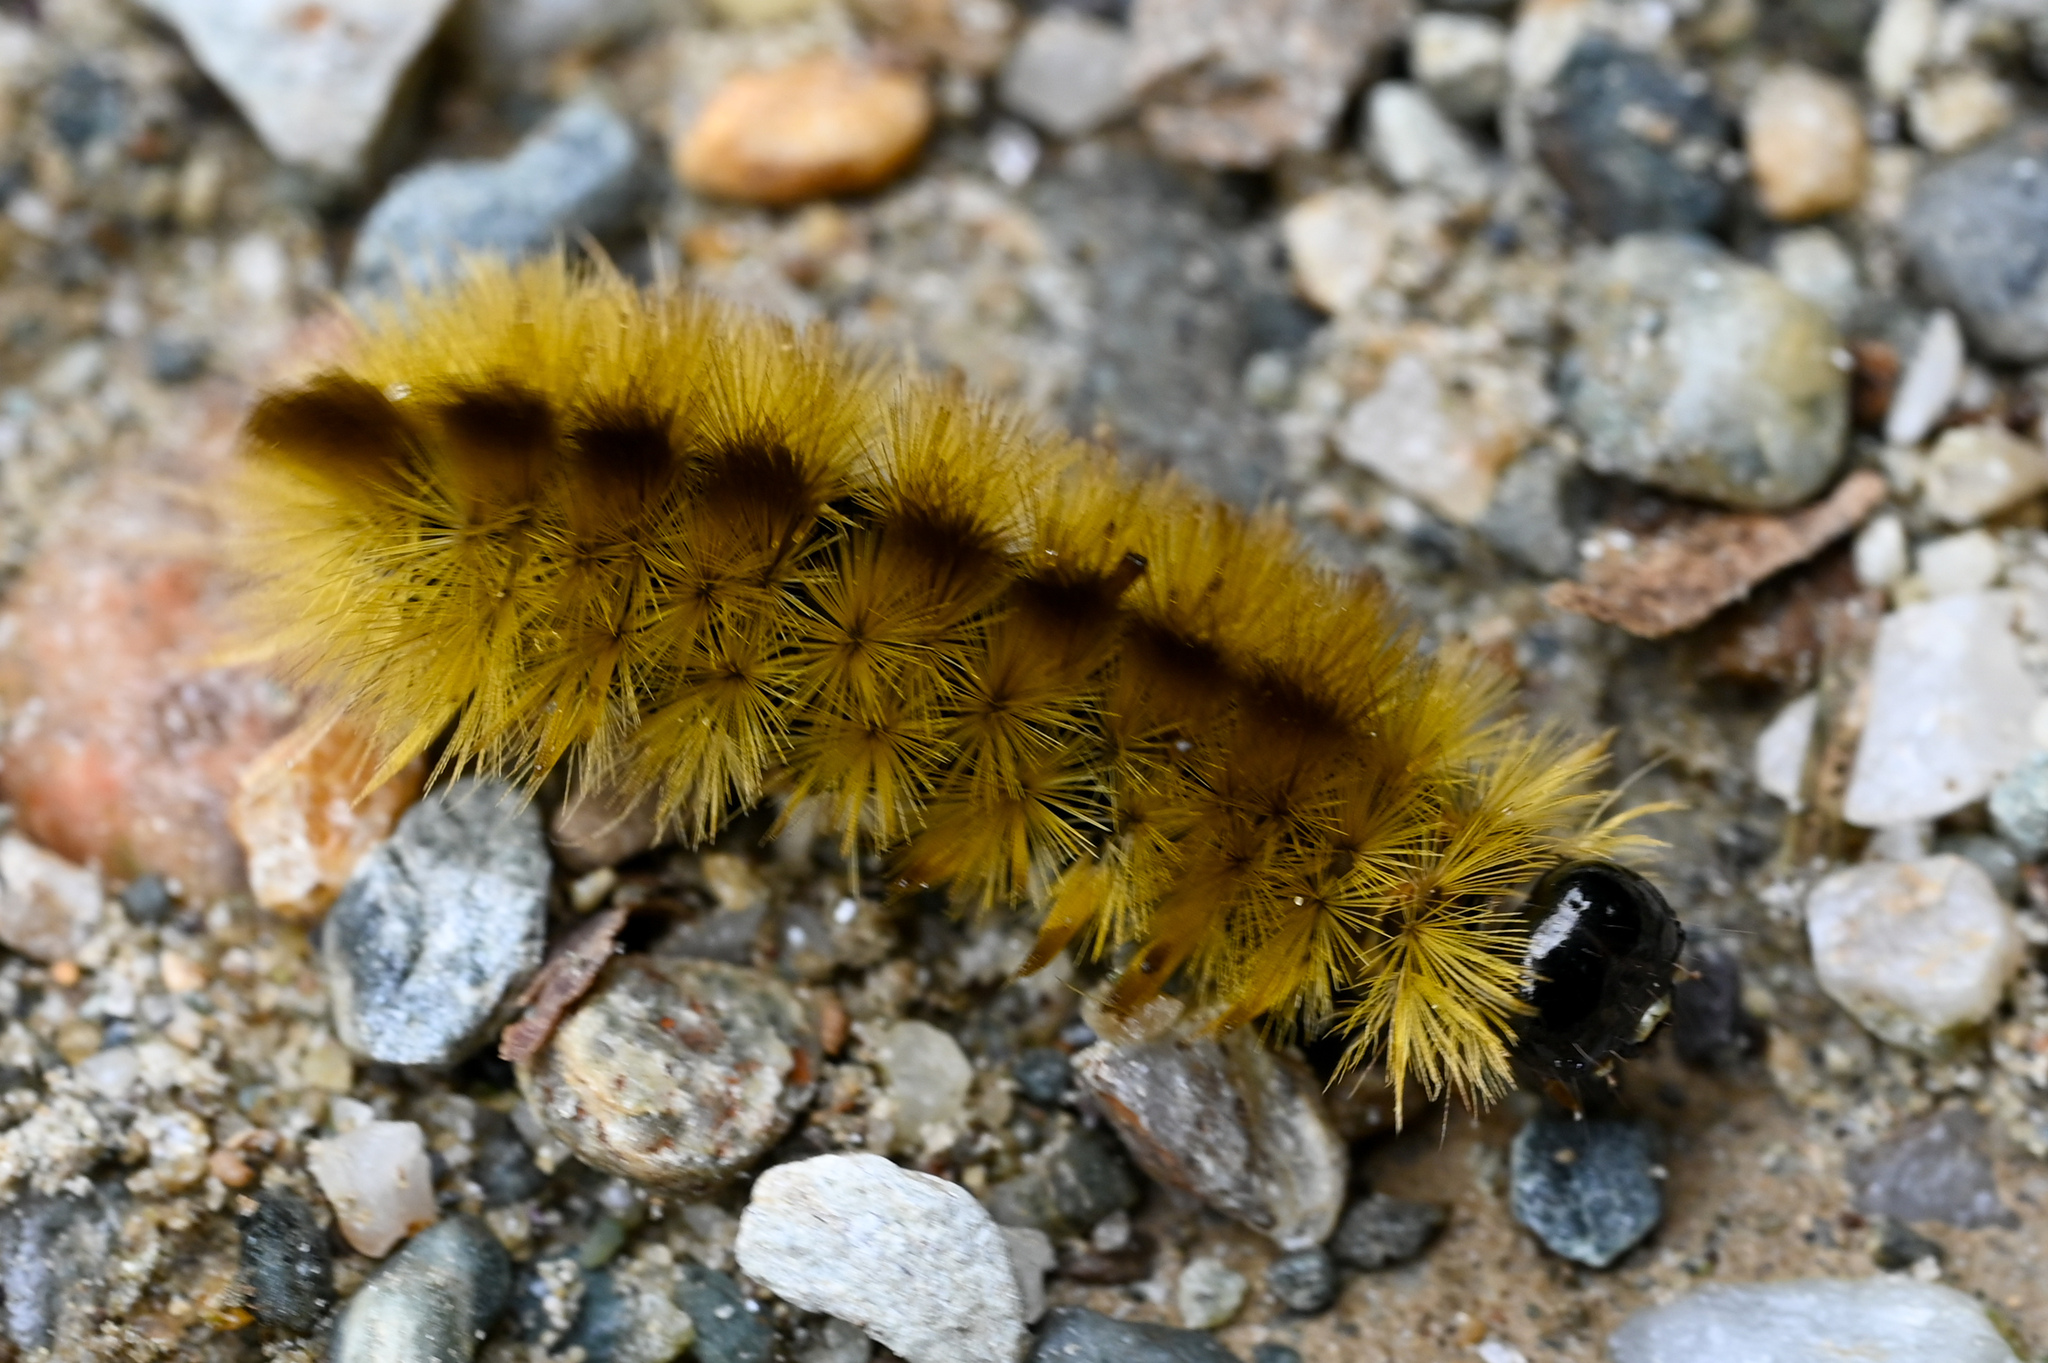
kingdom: Animalia
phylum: Arthropoda
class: Insecta
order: Lepidoptera
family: Erebidae
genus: Halysidota
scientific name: Halysidota tessellaris
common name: Banded tussock moth
